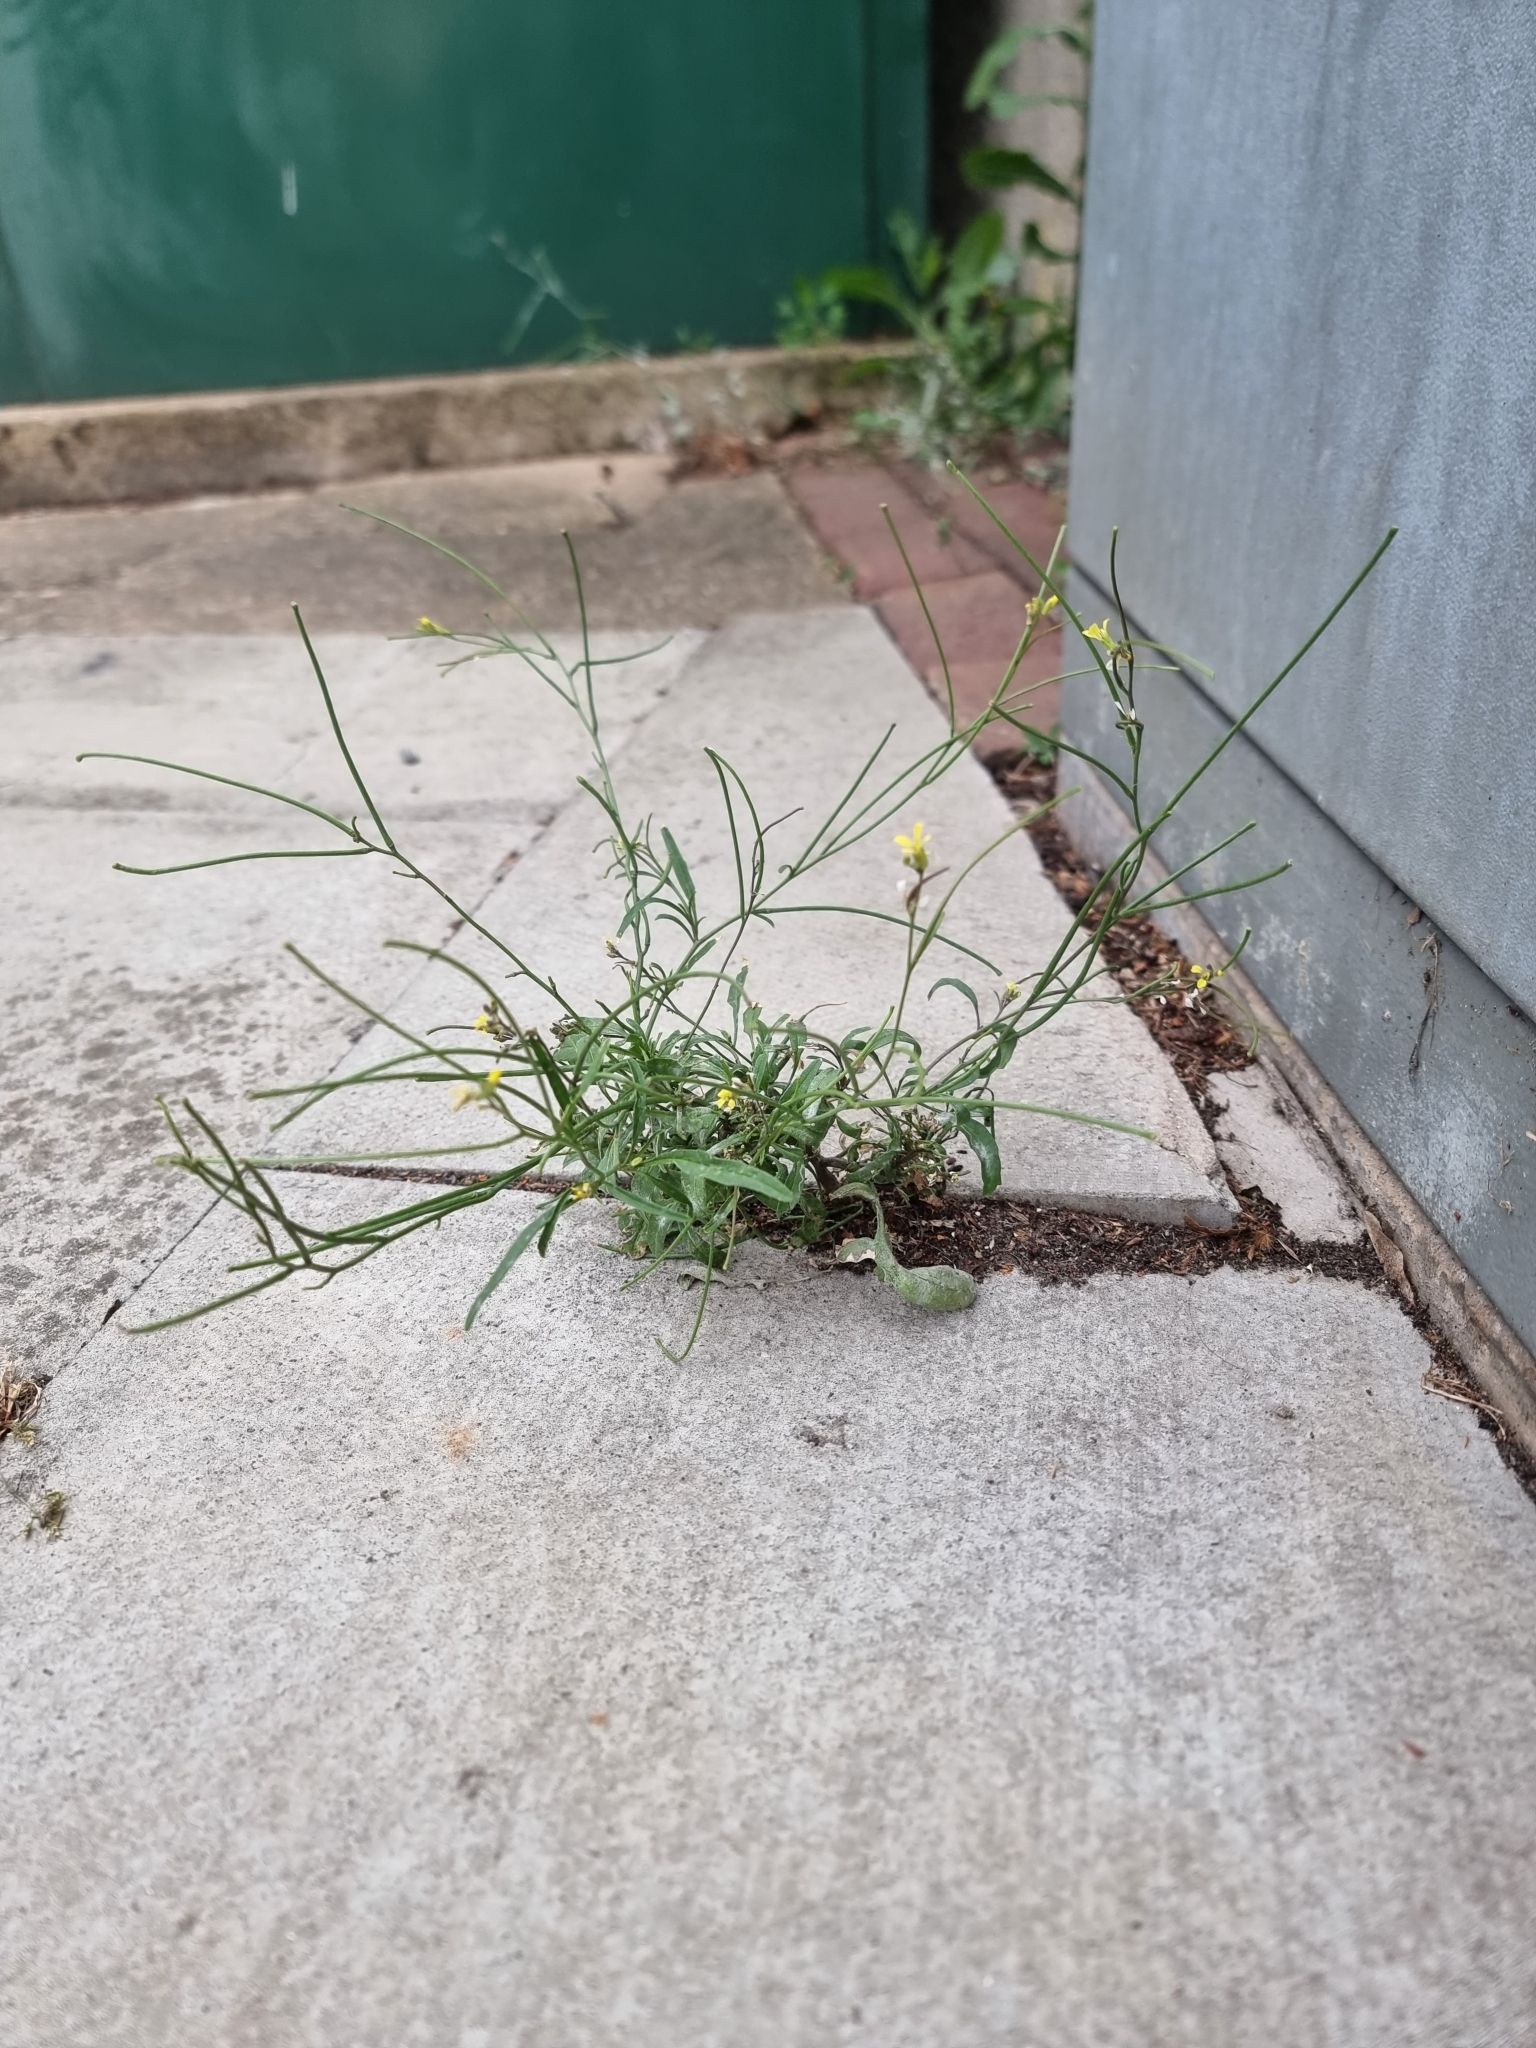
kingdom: Plantae
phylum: Tracheophyta
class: Magnoliopsida
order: Brassicales
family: Brassicaceae
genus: Sisymbrium
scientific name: Sisymbrium orientale
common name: Eastern rocket
